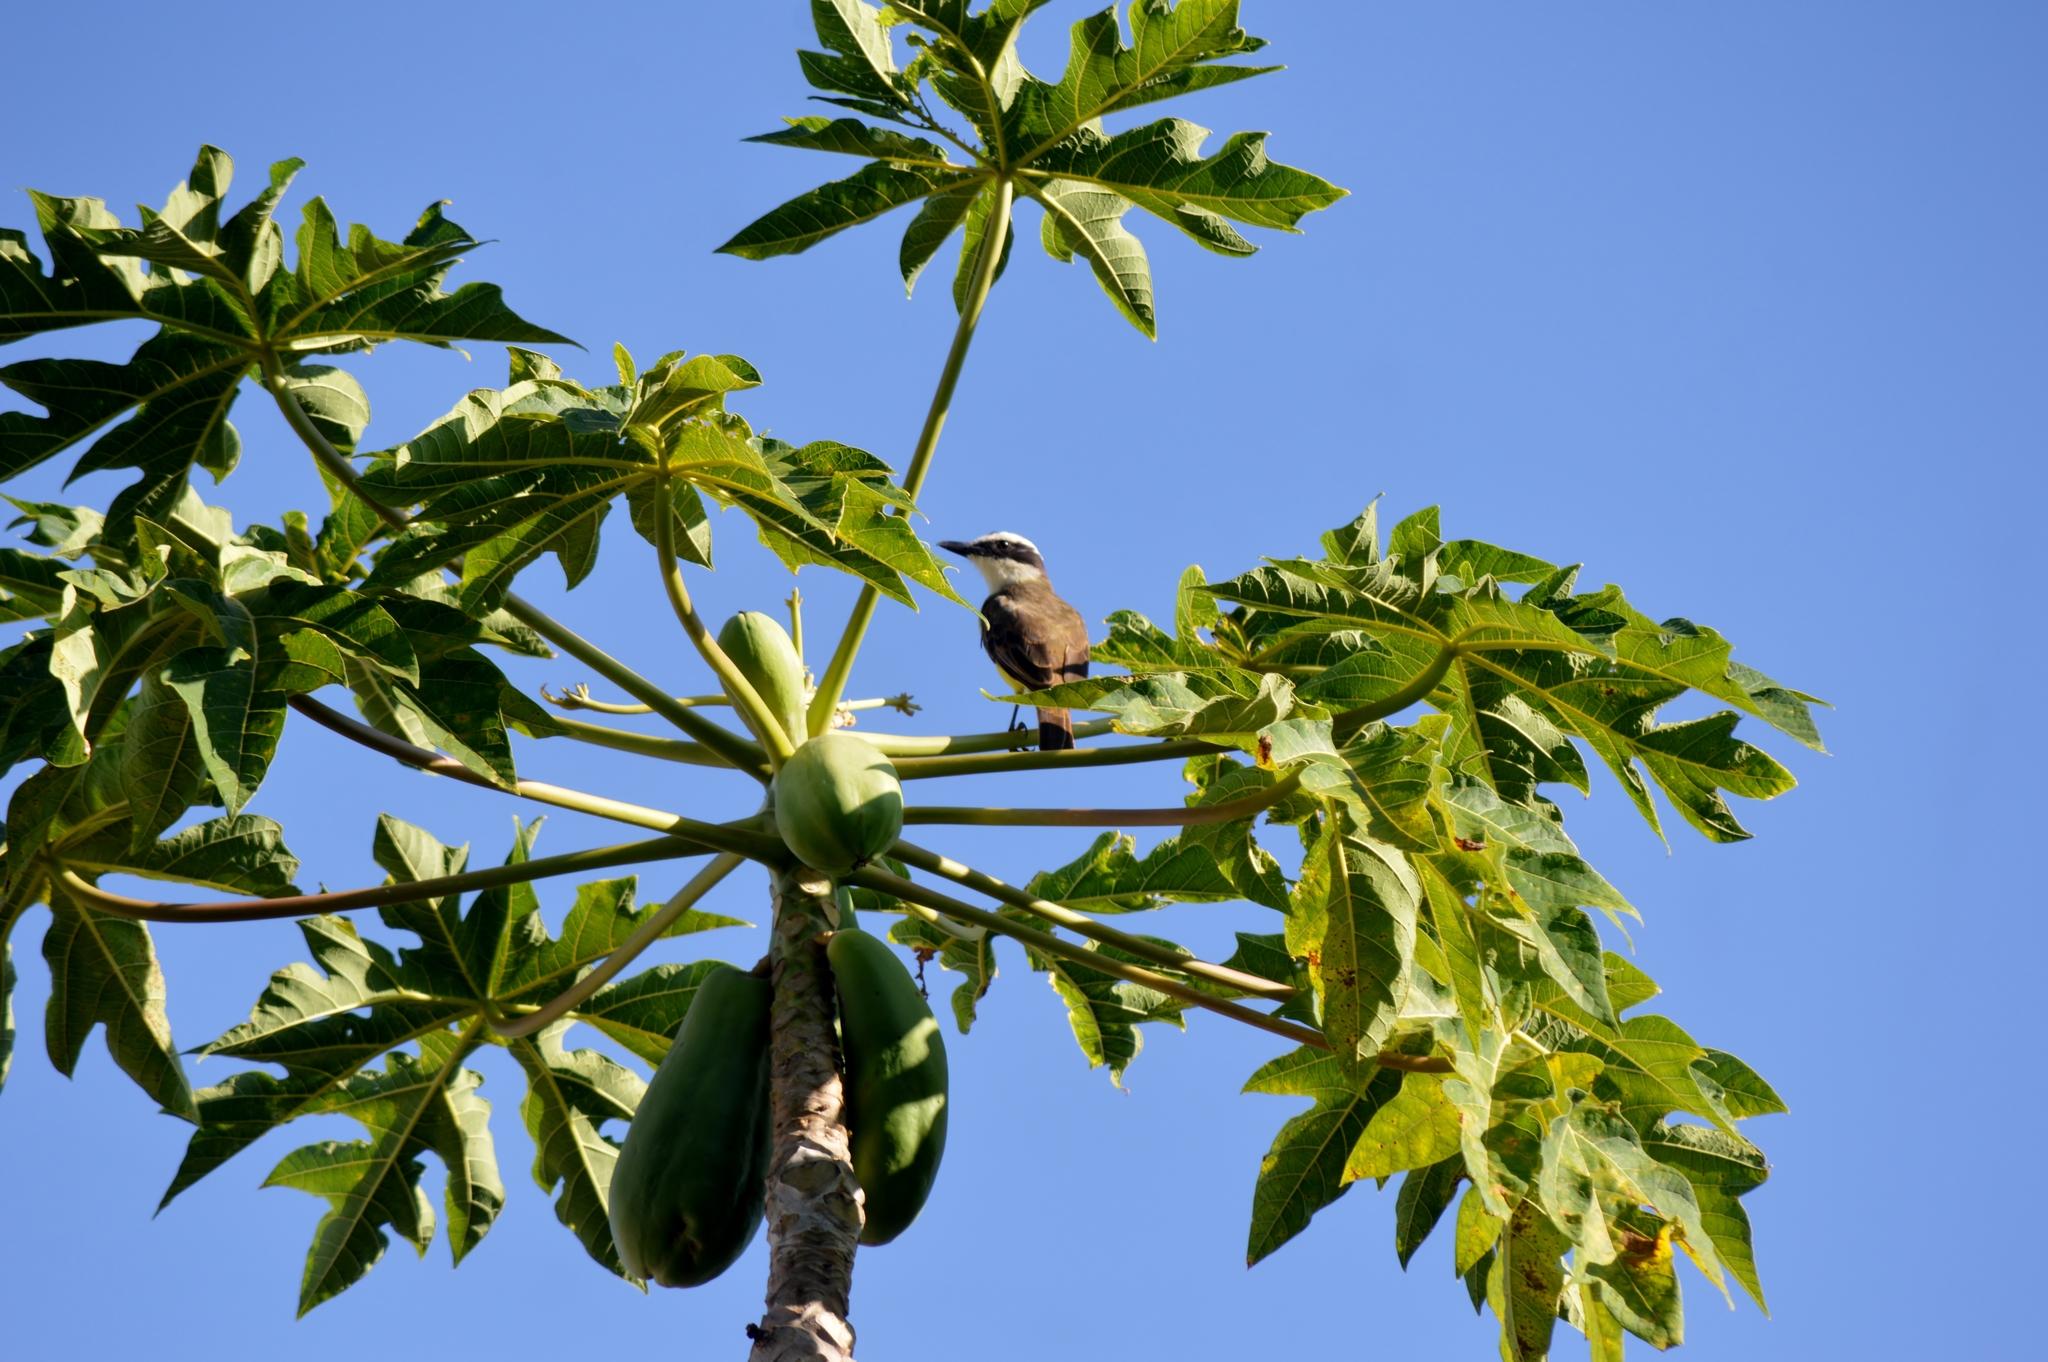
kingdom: Animalia
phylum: Chordata
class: Aves
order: Passeriformes
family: Tyrannidae
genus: Pitangus
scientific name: Pitangus sulphuratus
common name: Great kiskadee
